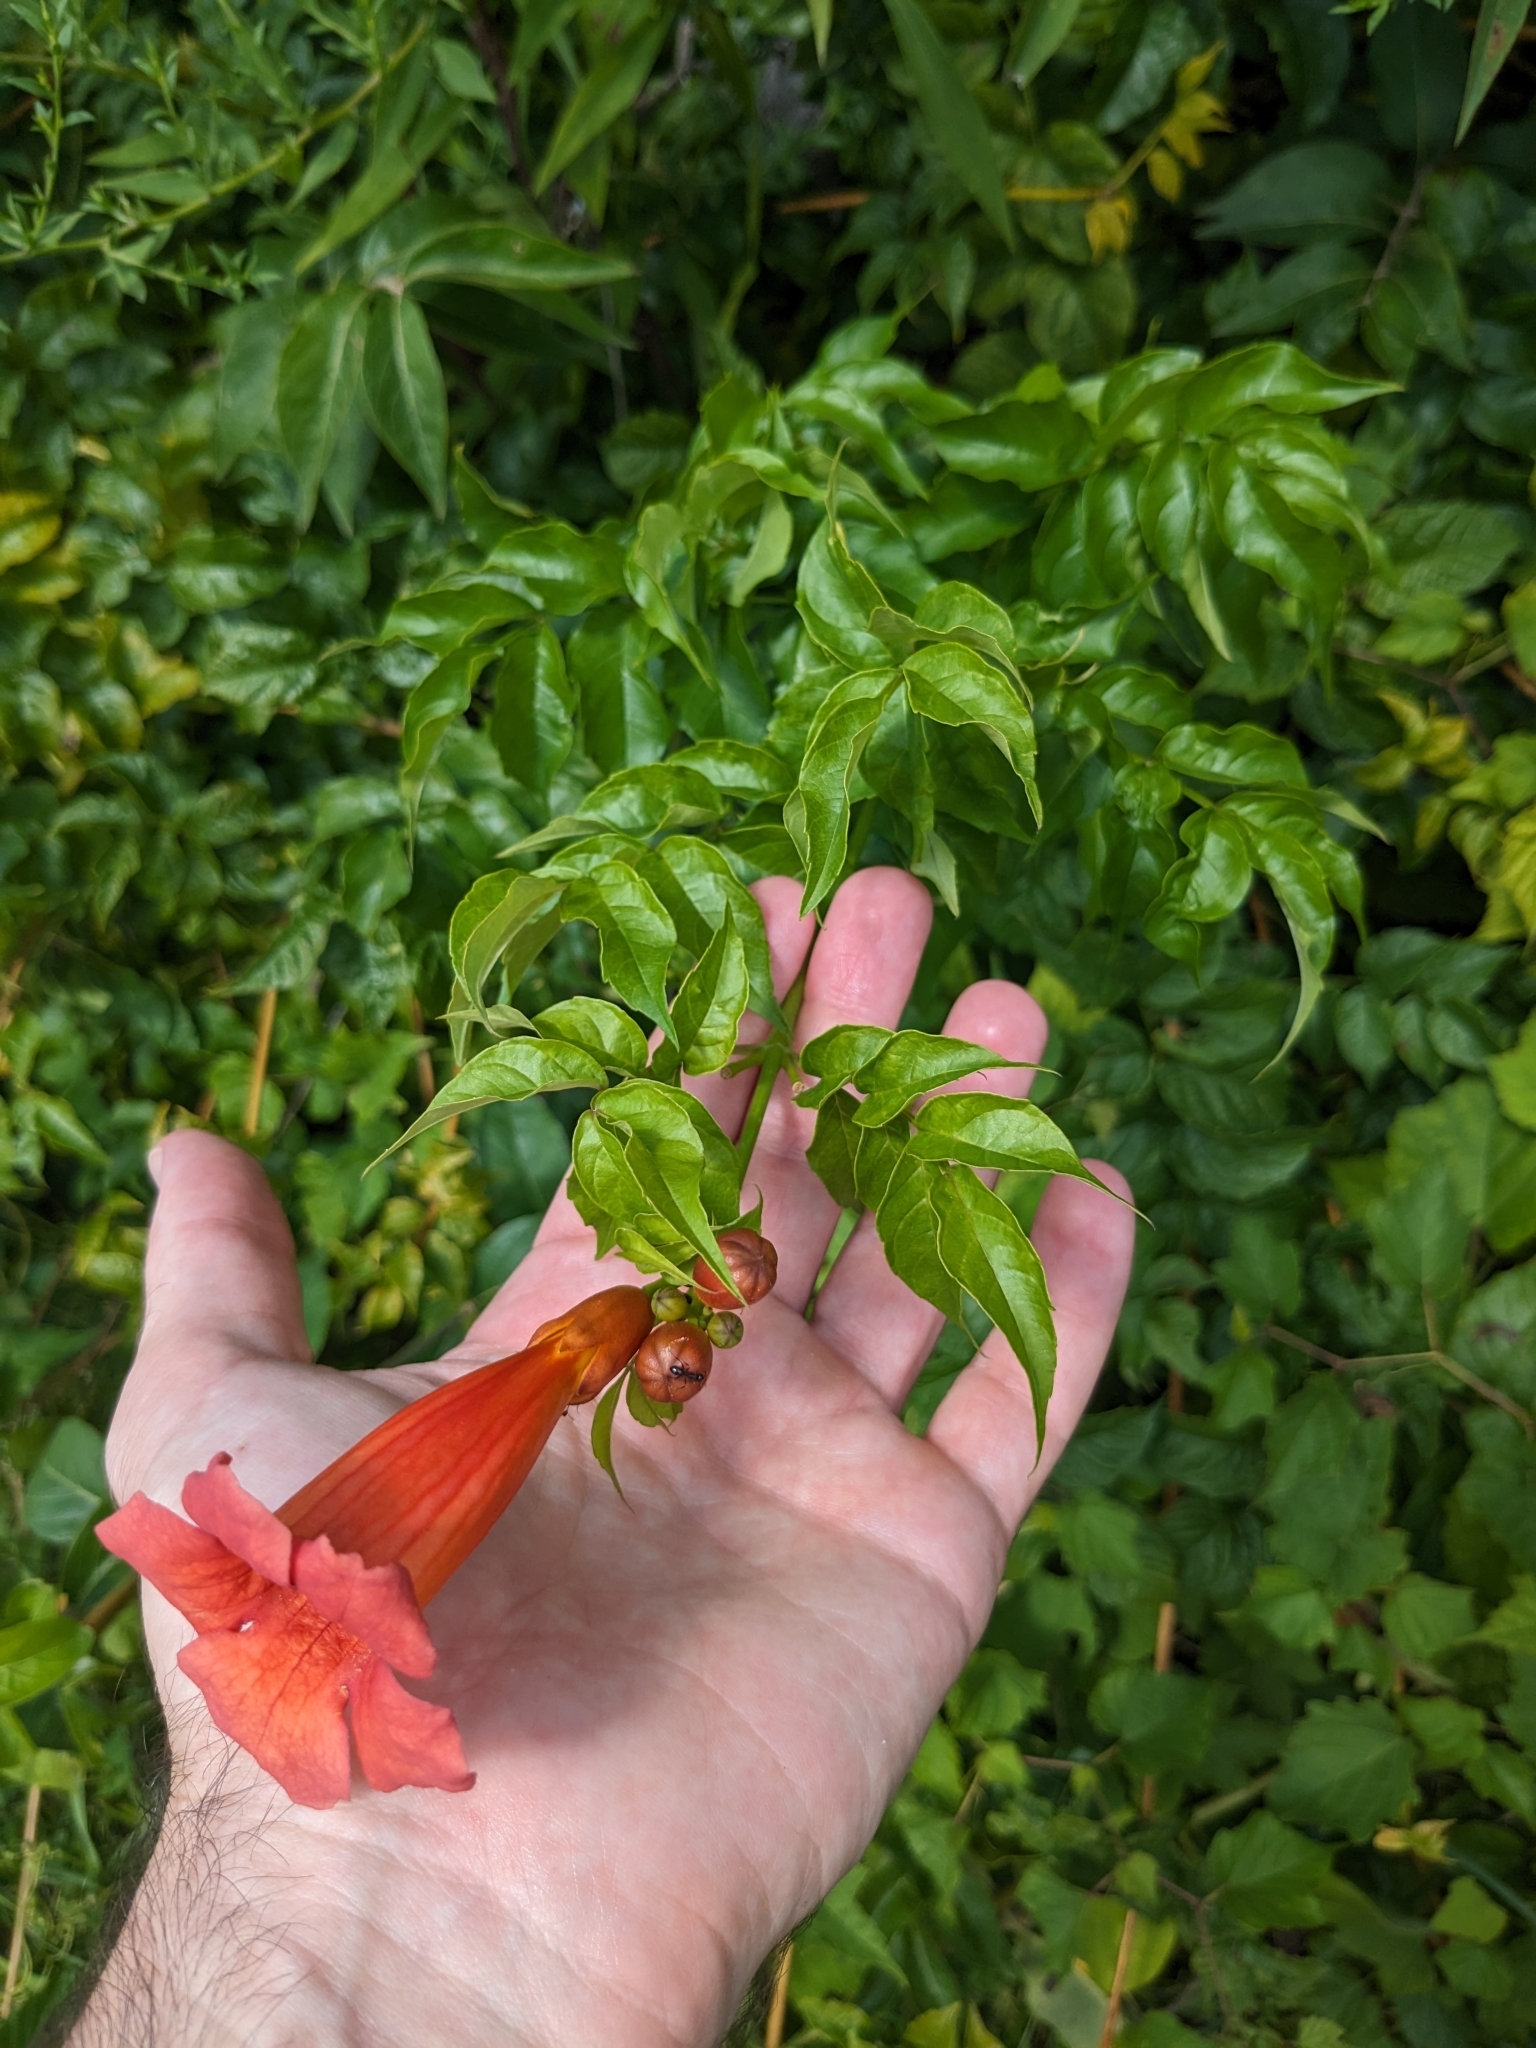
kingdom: Plantae
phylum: Tracheophyta
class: Magnoliopsida
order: Lamiales
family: Bignoniaceae
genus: Campsis
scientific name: Campsis radicans
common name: Trumpet-creeper
